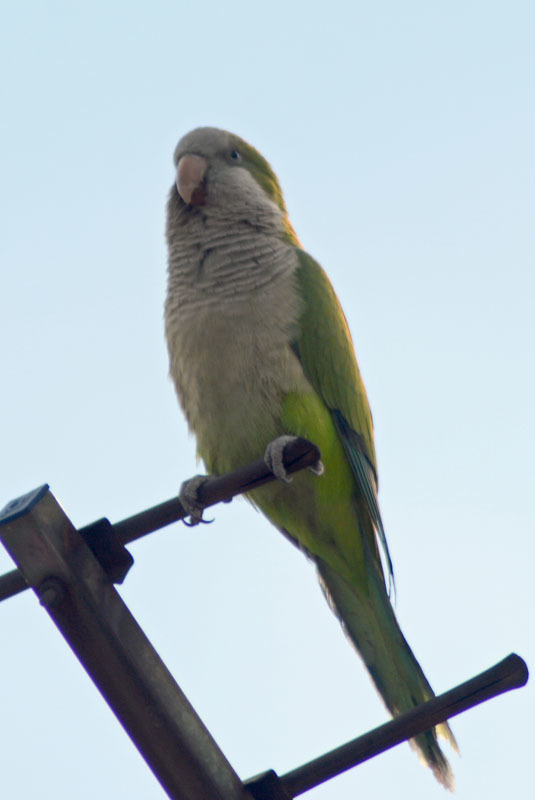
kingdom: Animalia
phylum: Chordata
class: Aves
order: Psittaciformes
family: Psittacidae
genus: Myiopsitta
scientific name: Myiopsitta monachus
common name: Monk parakeet
